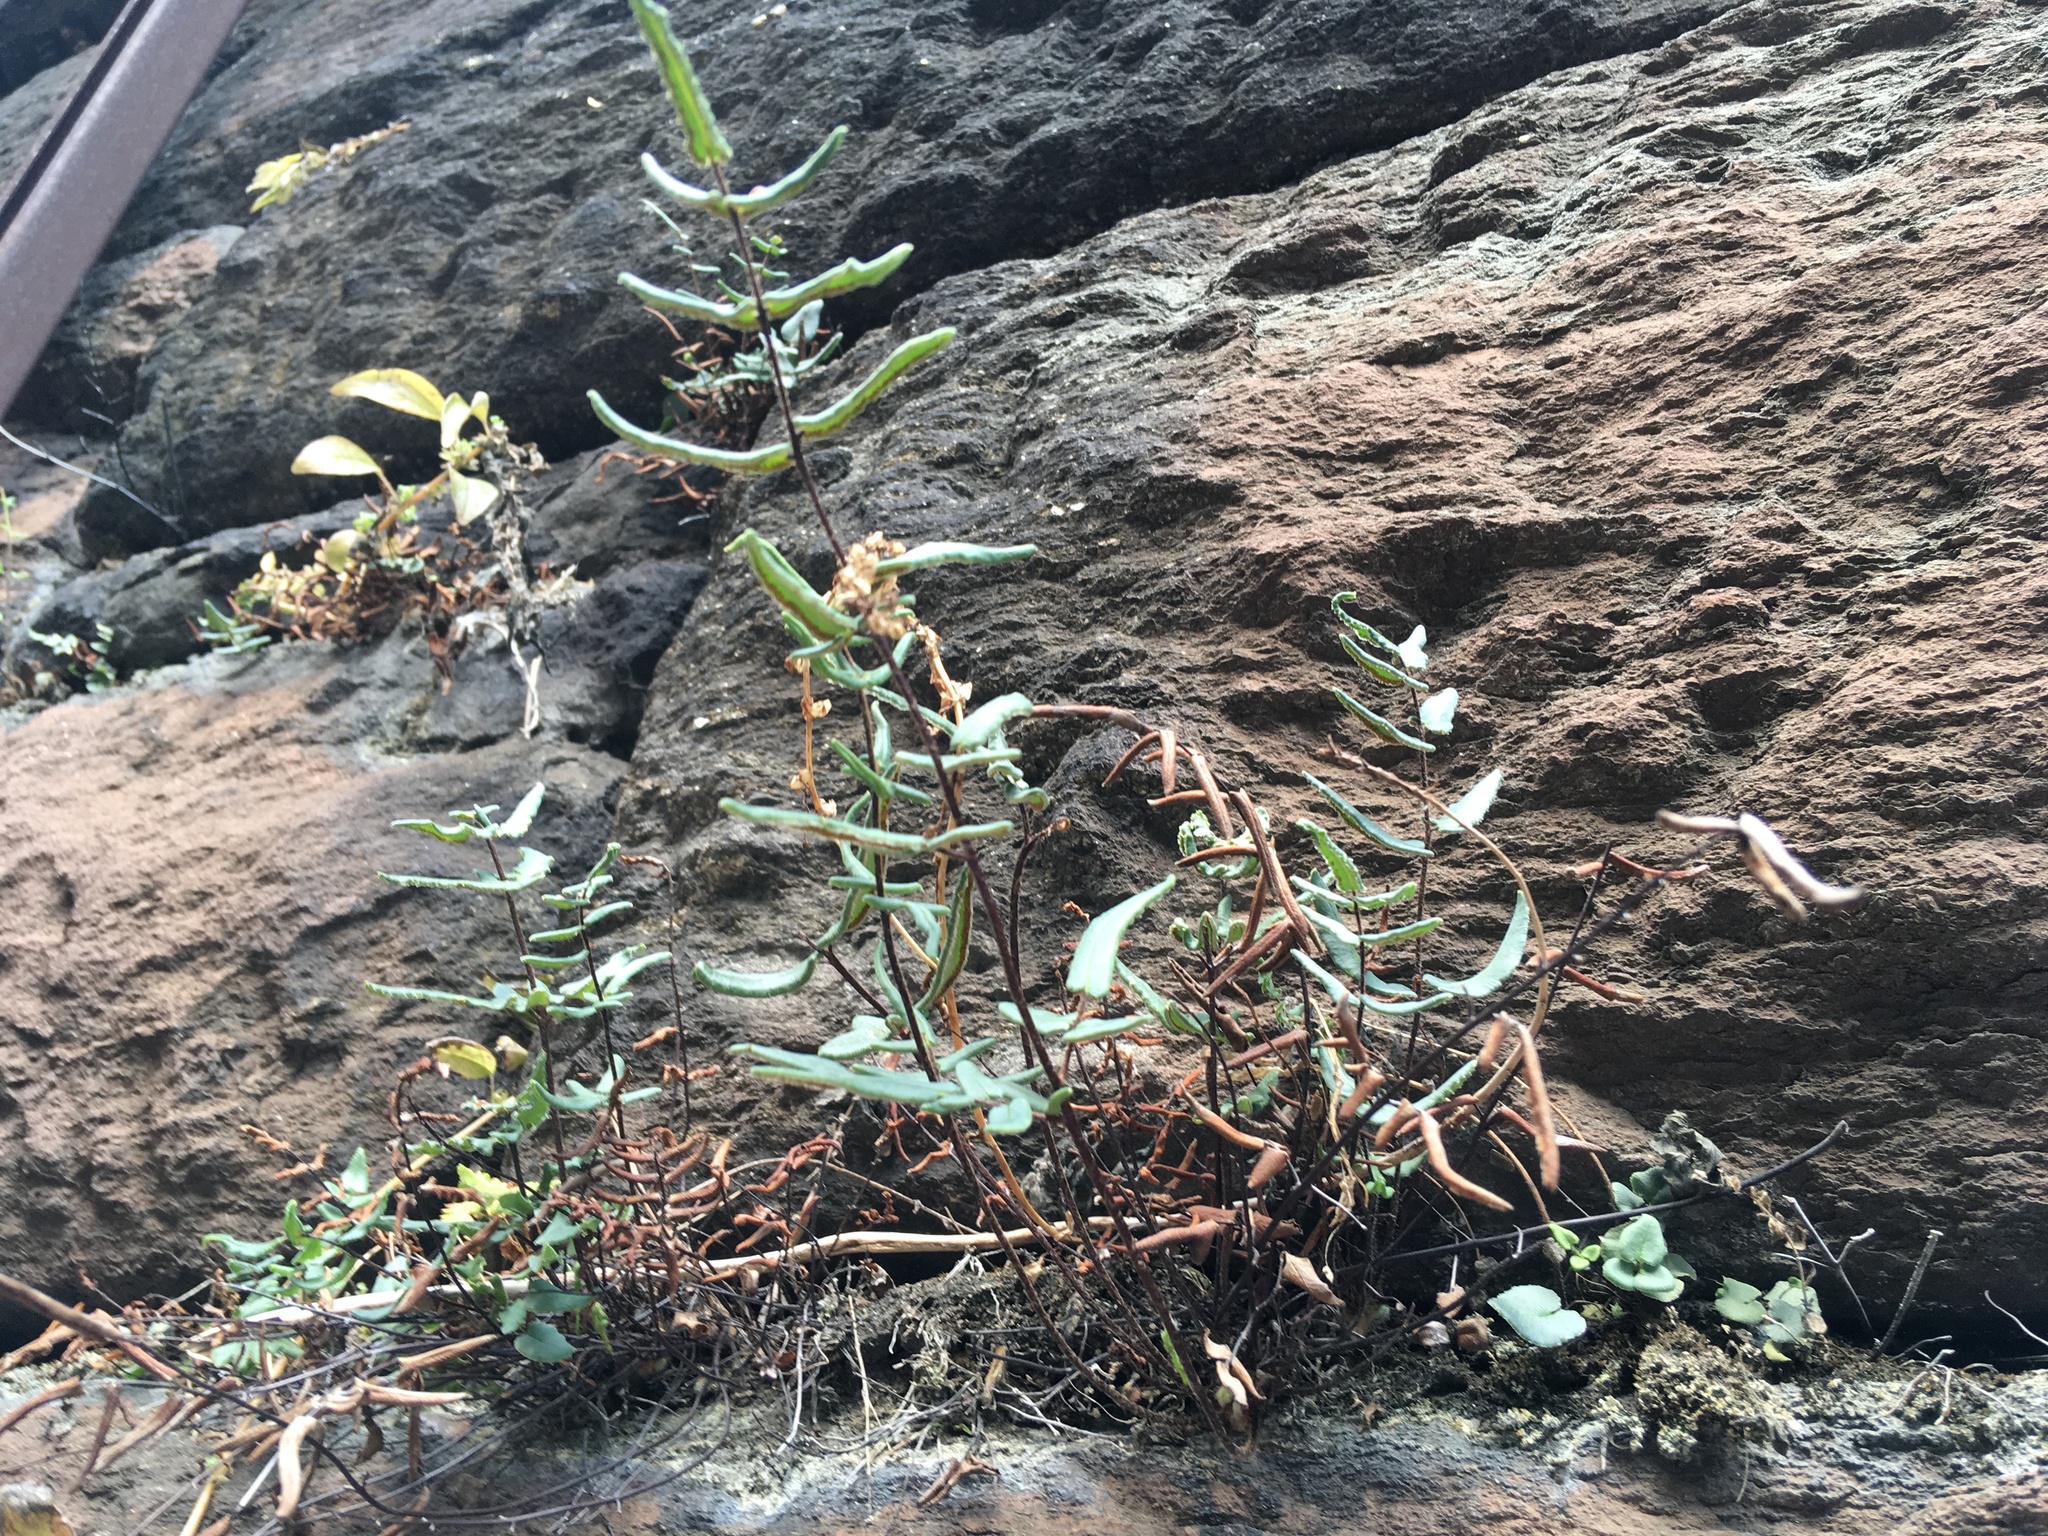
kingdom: Plantae
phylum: Tracheophyta
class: Polypodiopsida
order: Polypodiales
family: Pteridaceae
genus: Pellaea
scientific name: Pellaea atropurpurea
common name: Hairy cliffbrake
